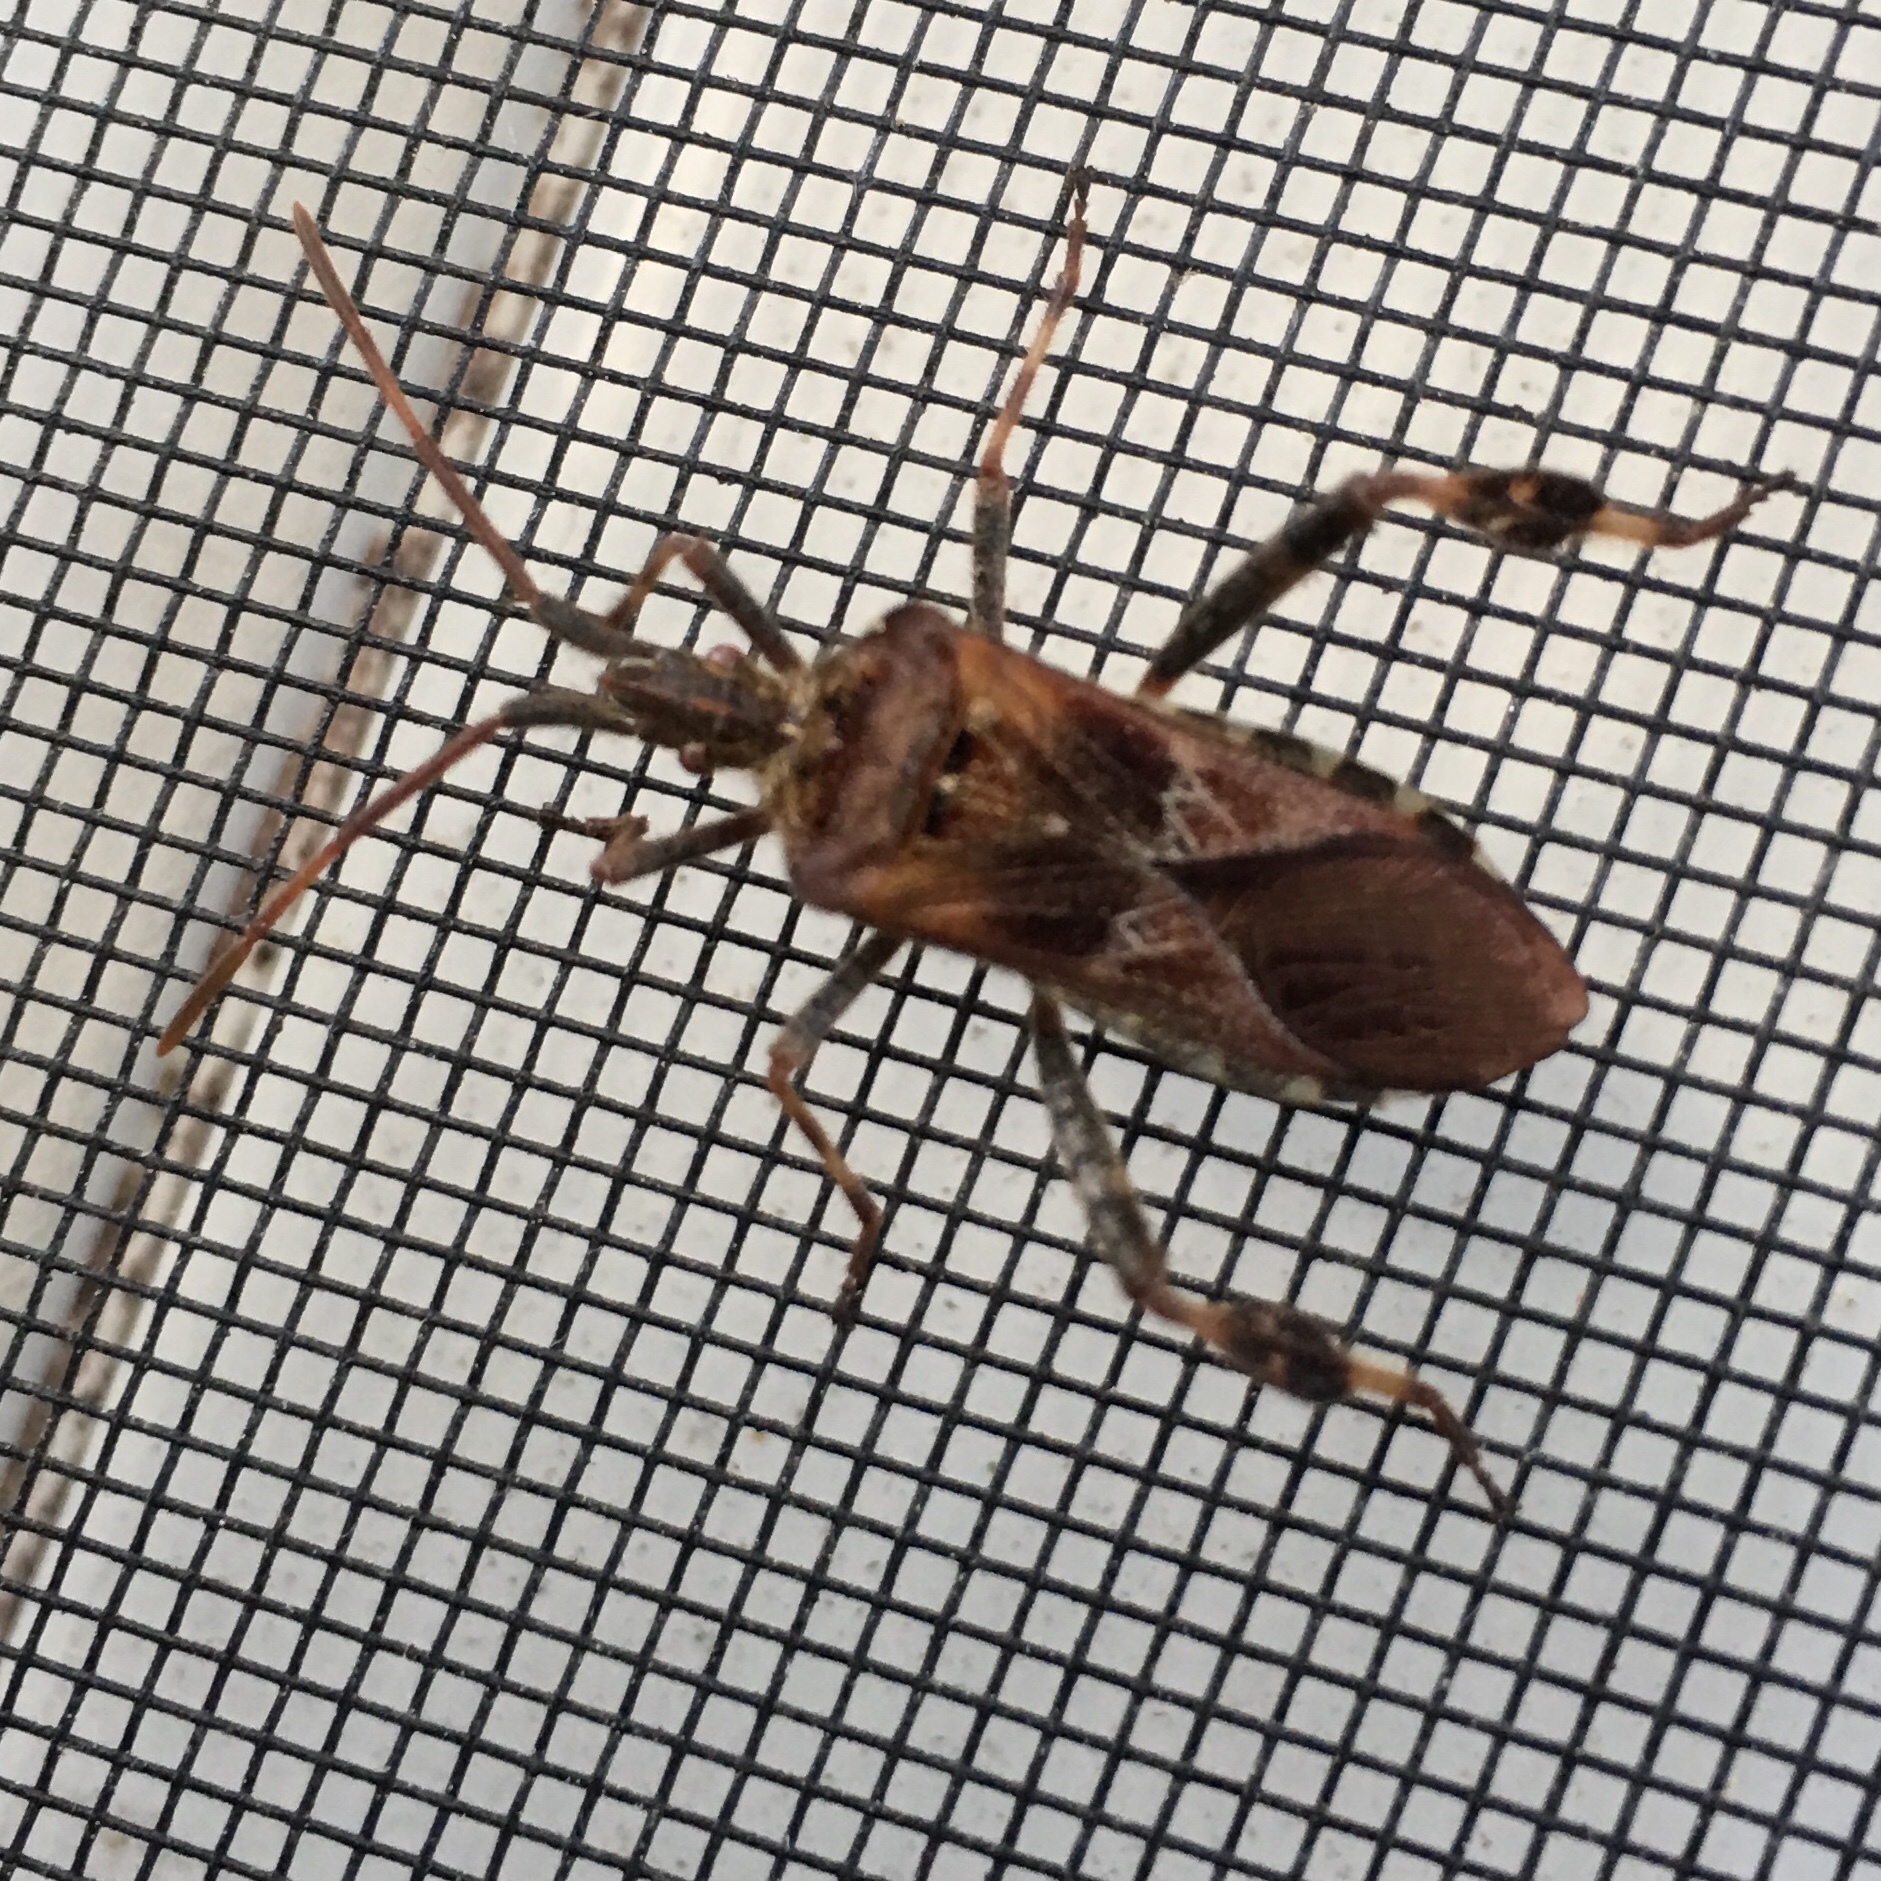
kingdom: Animalia
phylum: Arthropoda
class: Insecta
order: Hemiptera
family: Coreidae
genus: Leptoglossus
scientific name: Leptoglossus occidentalis
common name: Western conifer-seed bug
